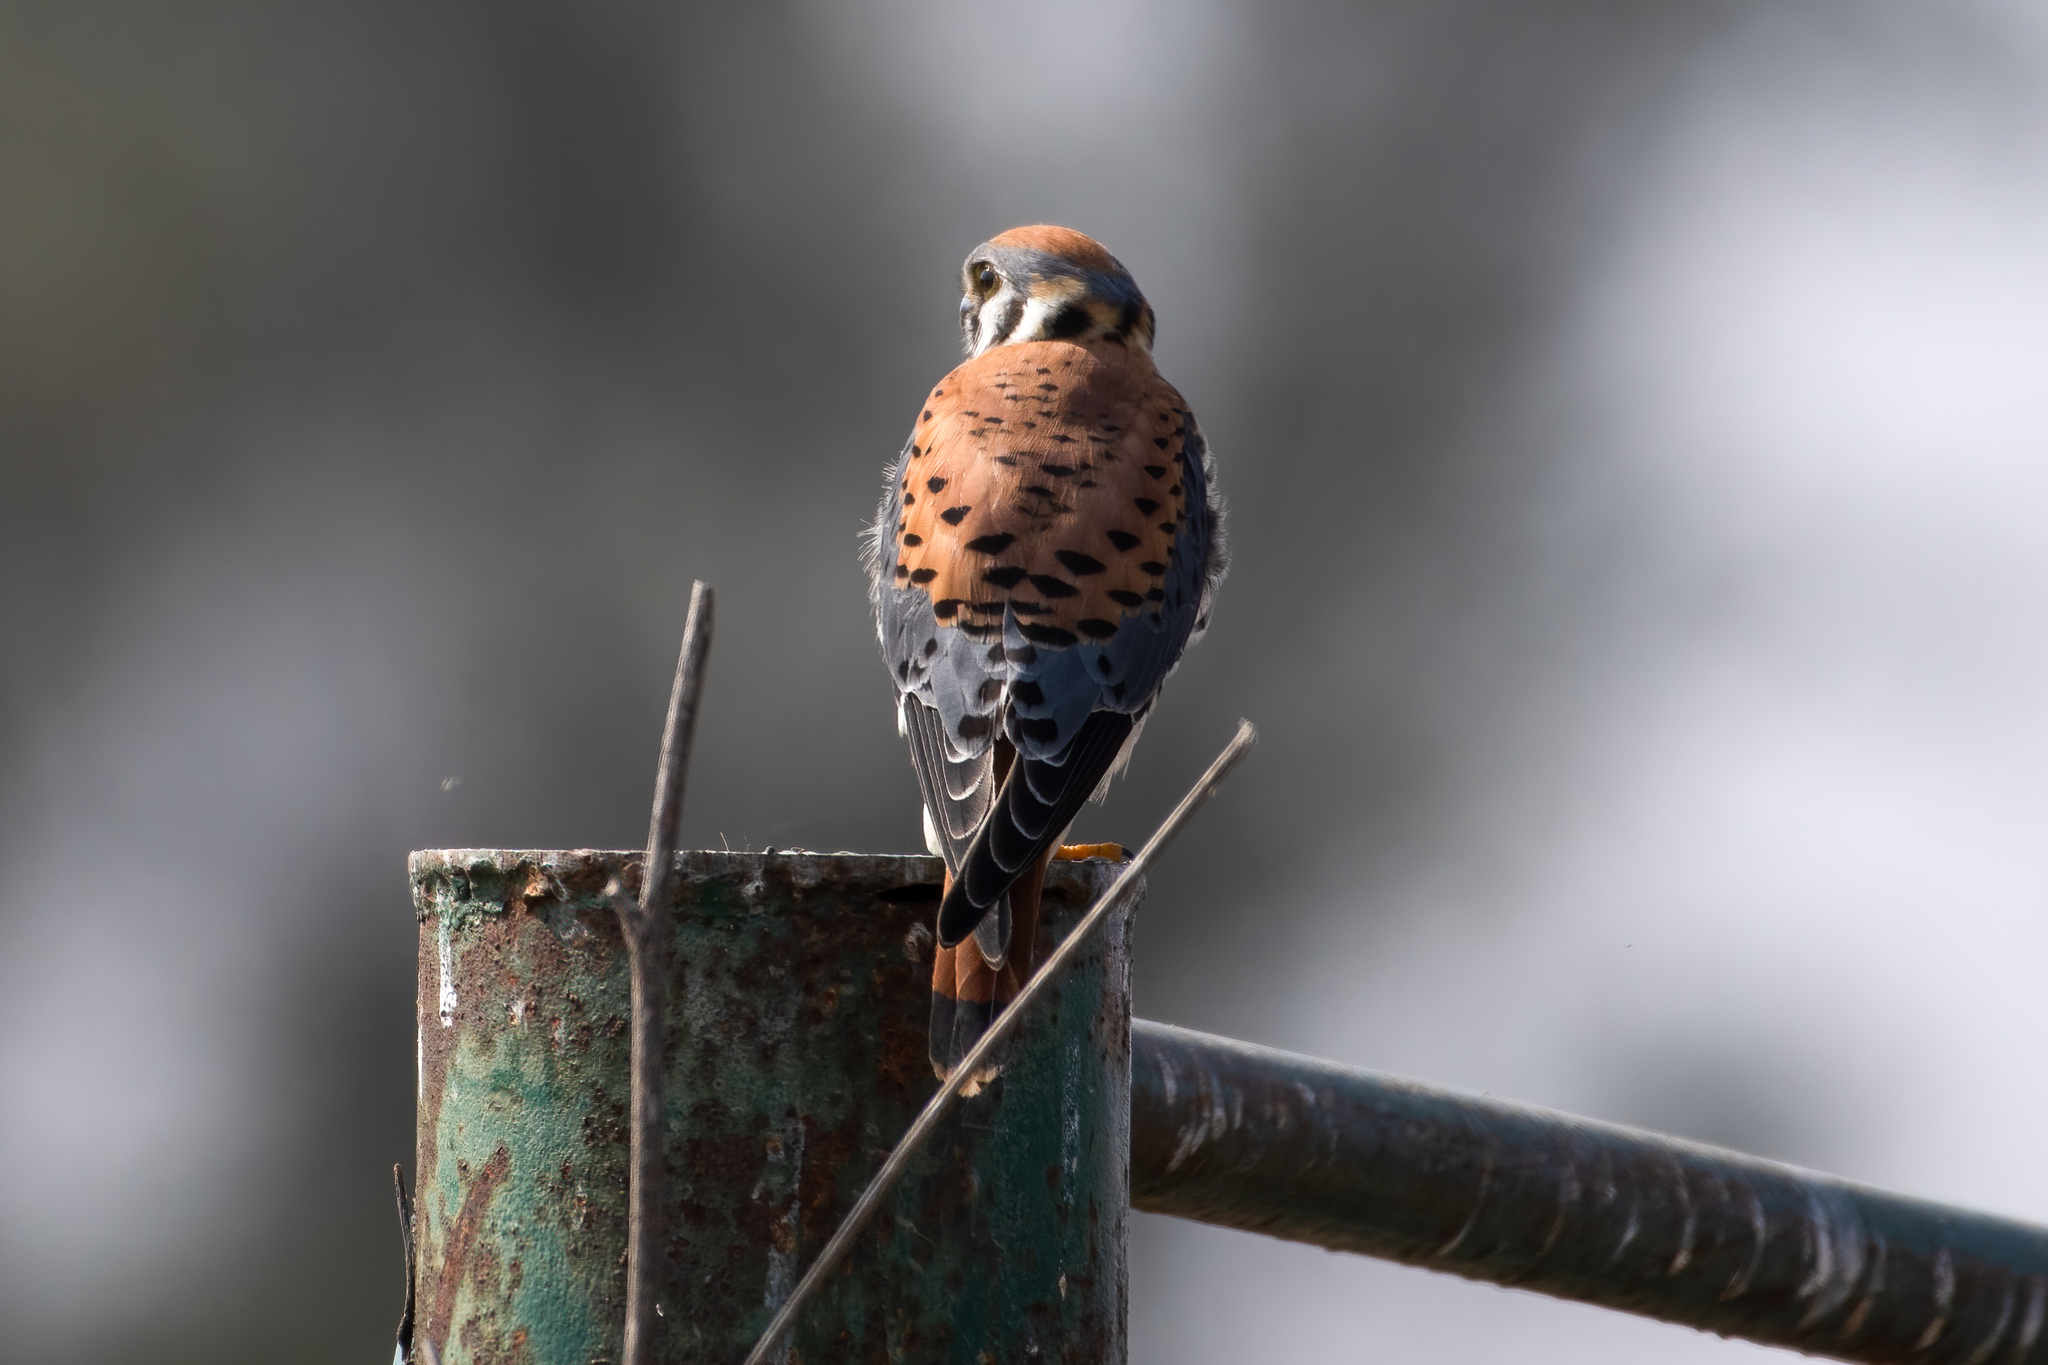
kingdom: Animalia
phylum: Chordata
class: Aves
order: Falconiformes
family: Falconidae
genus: Falco
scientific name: Falco sparverius
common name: American kestrel
